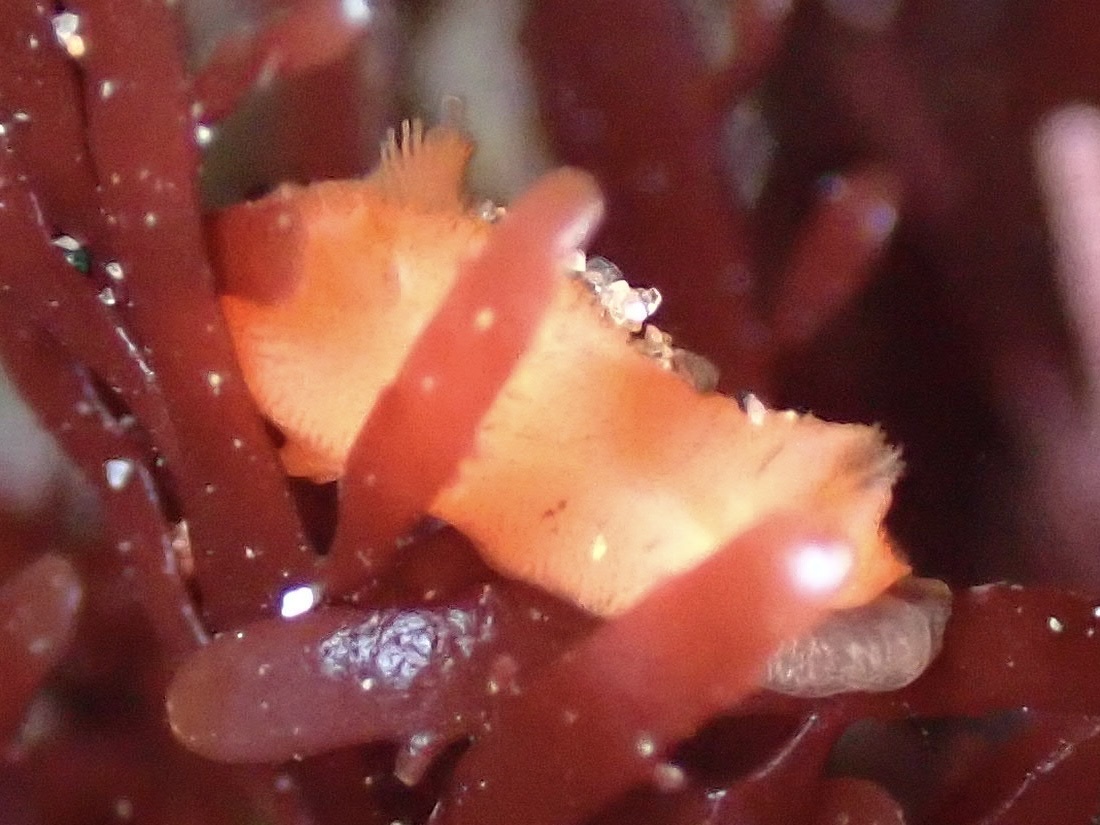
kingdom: Animalia
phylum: Mollusca
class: Gastropoda
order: Nudibranchia
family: Discodorididae
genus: Rostanga
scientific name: Rostanga pulchra
